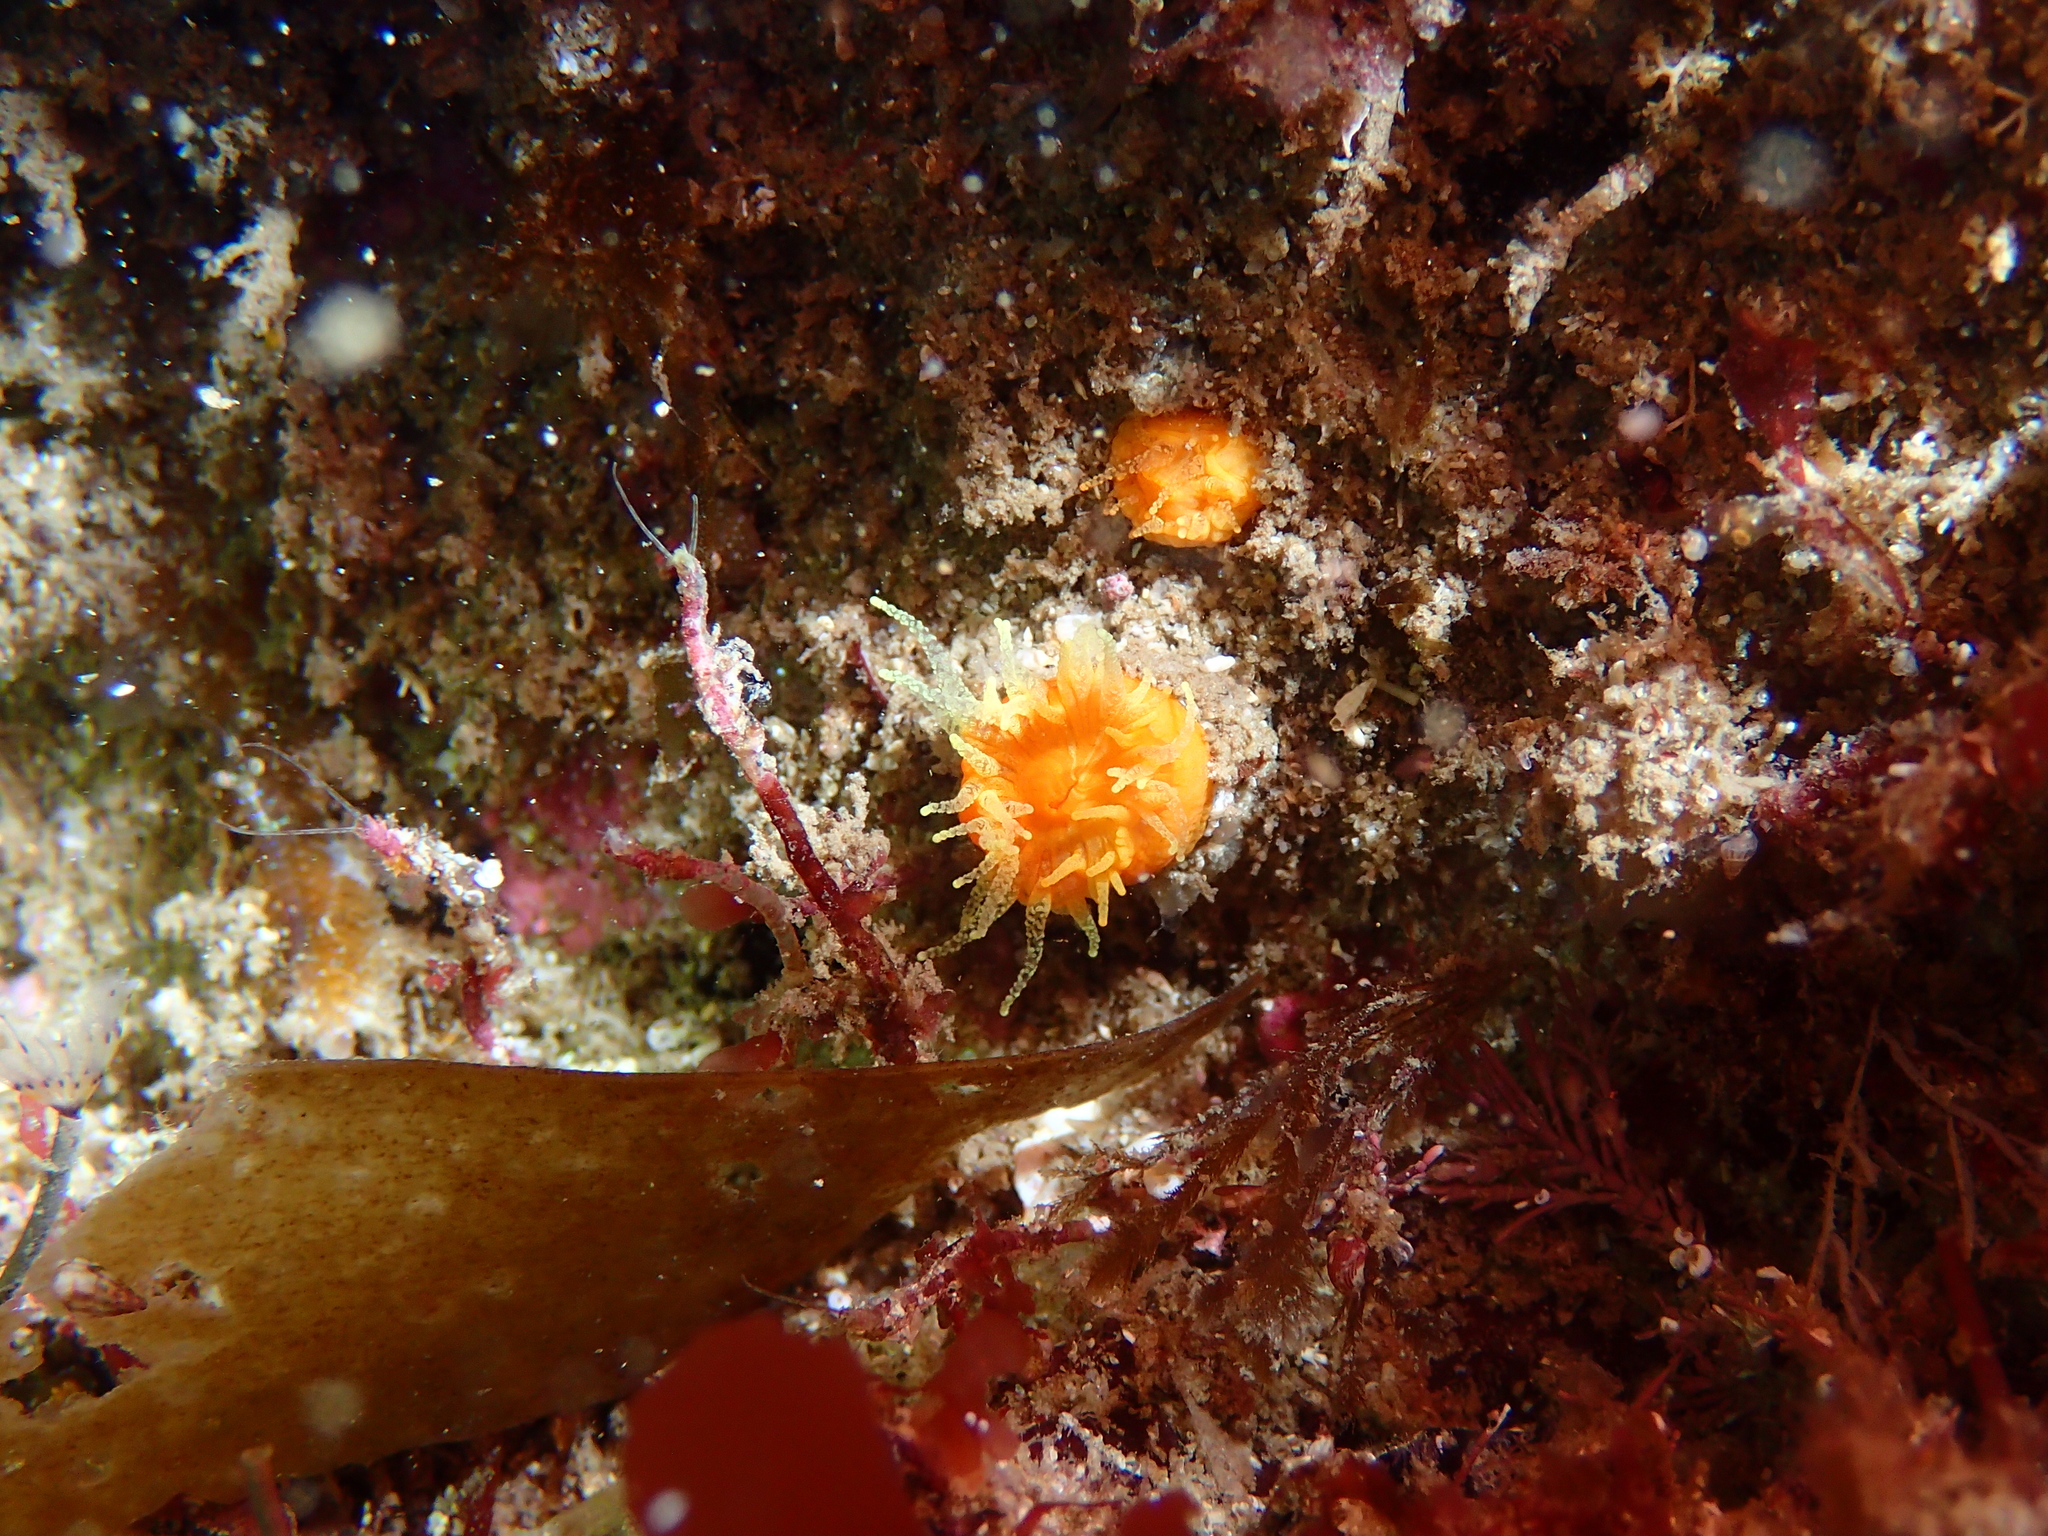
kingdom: Animalia
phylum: Cnidaria
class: Anthozoa
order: Scleractinia
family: Dendrophylliidae
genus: Balanophyllia
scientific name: Balanophyllia regia
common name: Golden star coral
